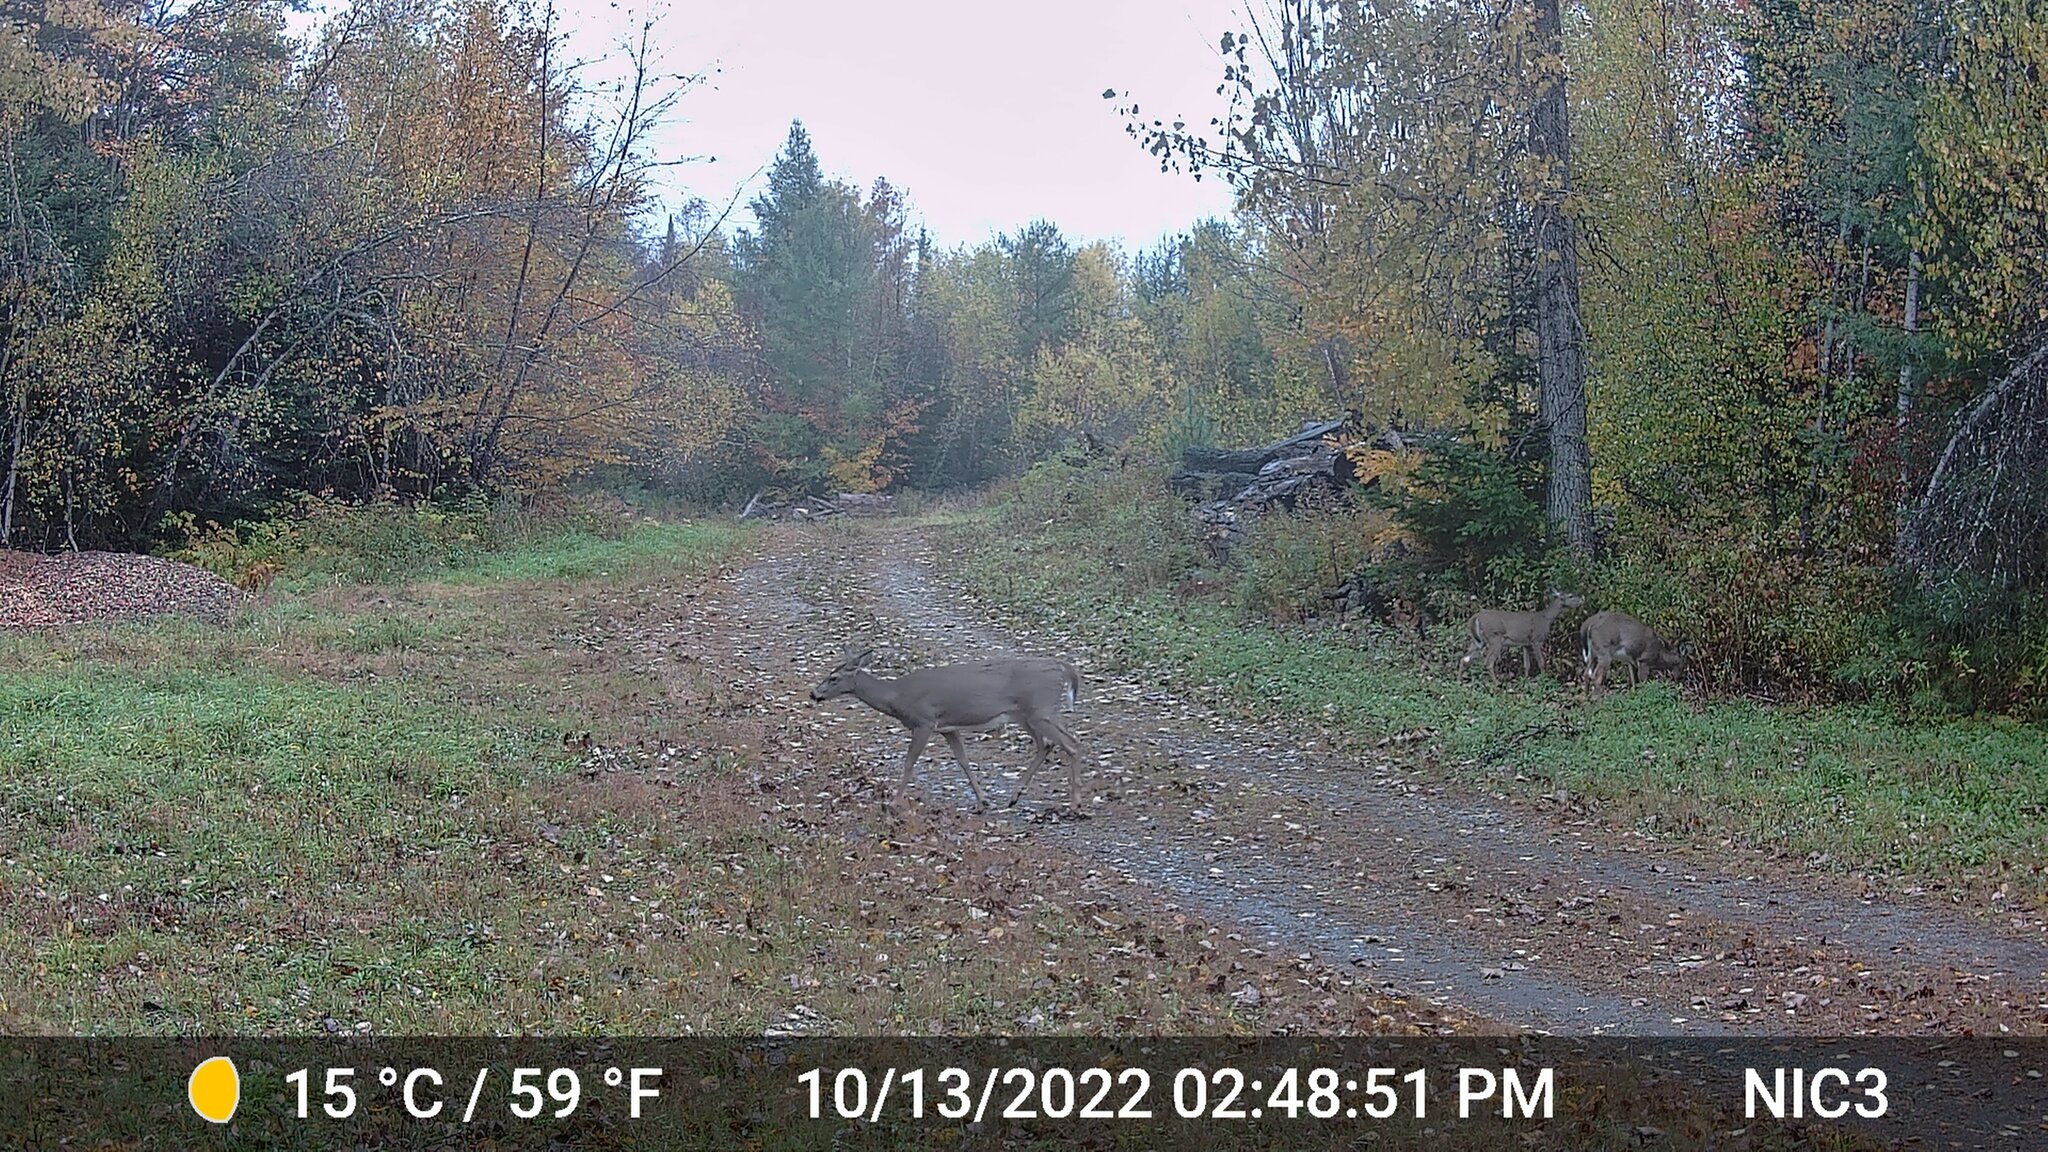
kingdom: Animalia
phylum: Chordata
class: Mammalia
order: Artiodactyla
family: Cervidae
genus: Odocoileus
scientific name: Odocoileus virginianus
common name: White-tailed deer
